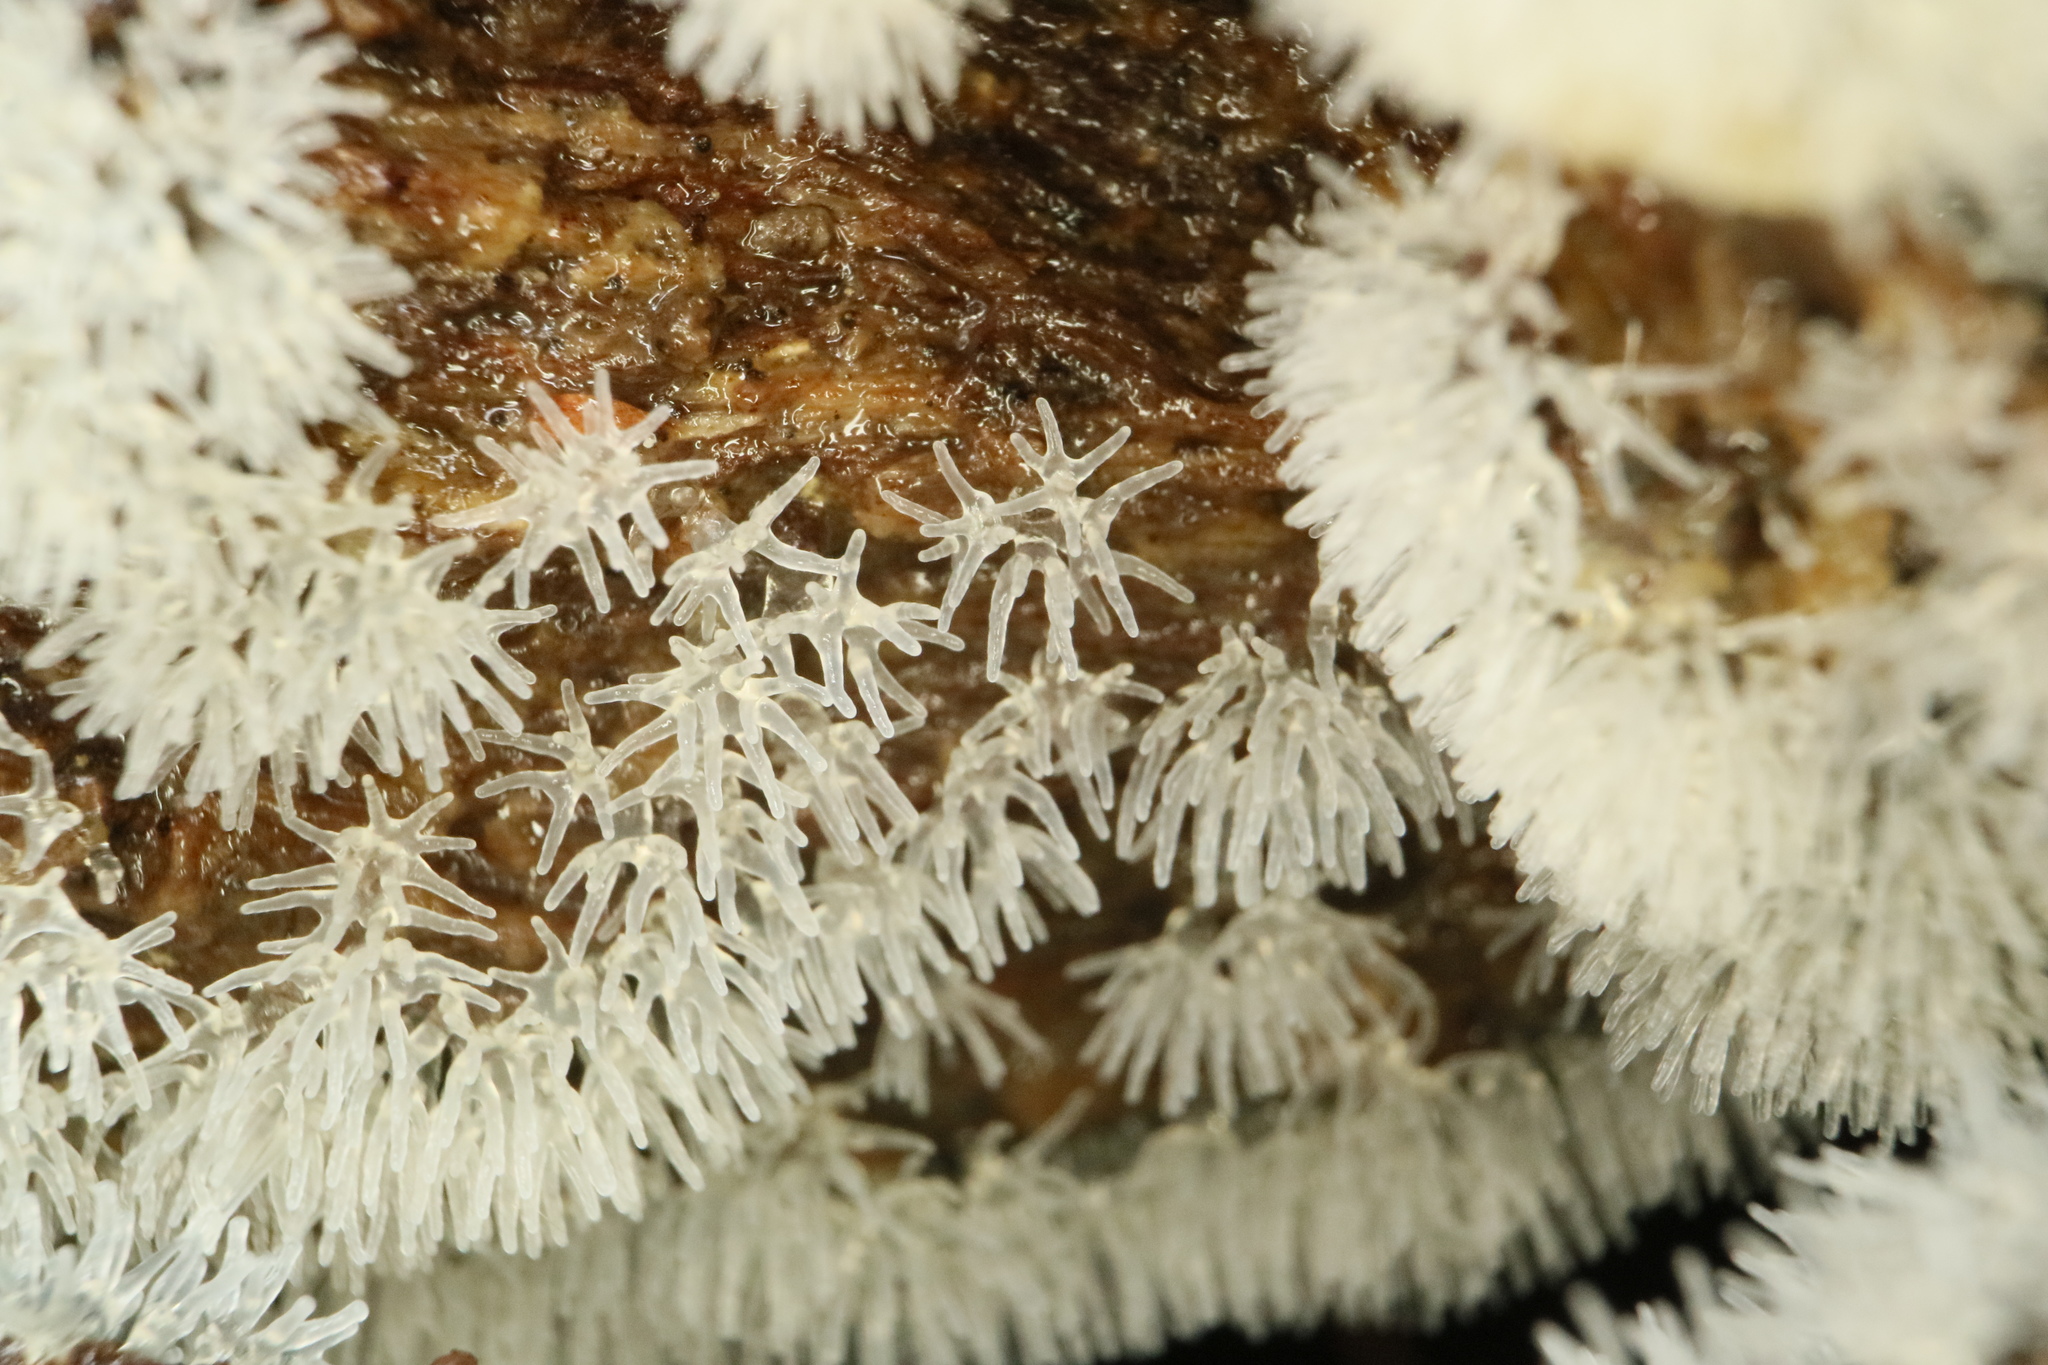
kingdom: Protozoa
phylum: Mycetozoa
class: Protosteliomycetes
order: Ceratiomyxales
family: Ceratiomyxaceae
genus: Ceratiomyxa
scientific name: Ceratiomyxa fruticulosa
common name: Honeycomb coral slime mold
